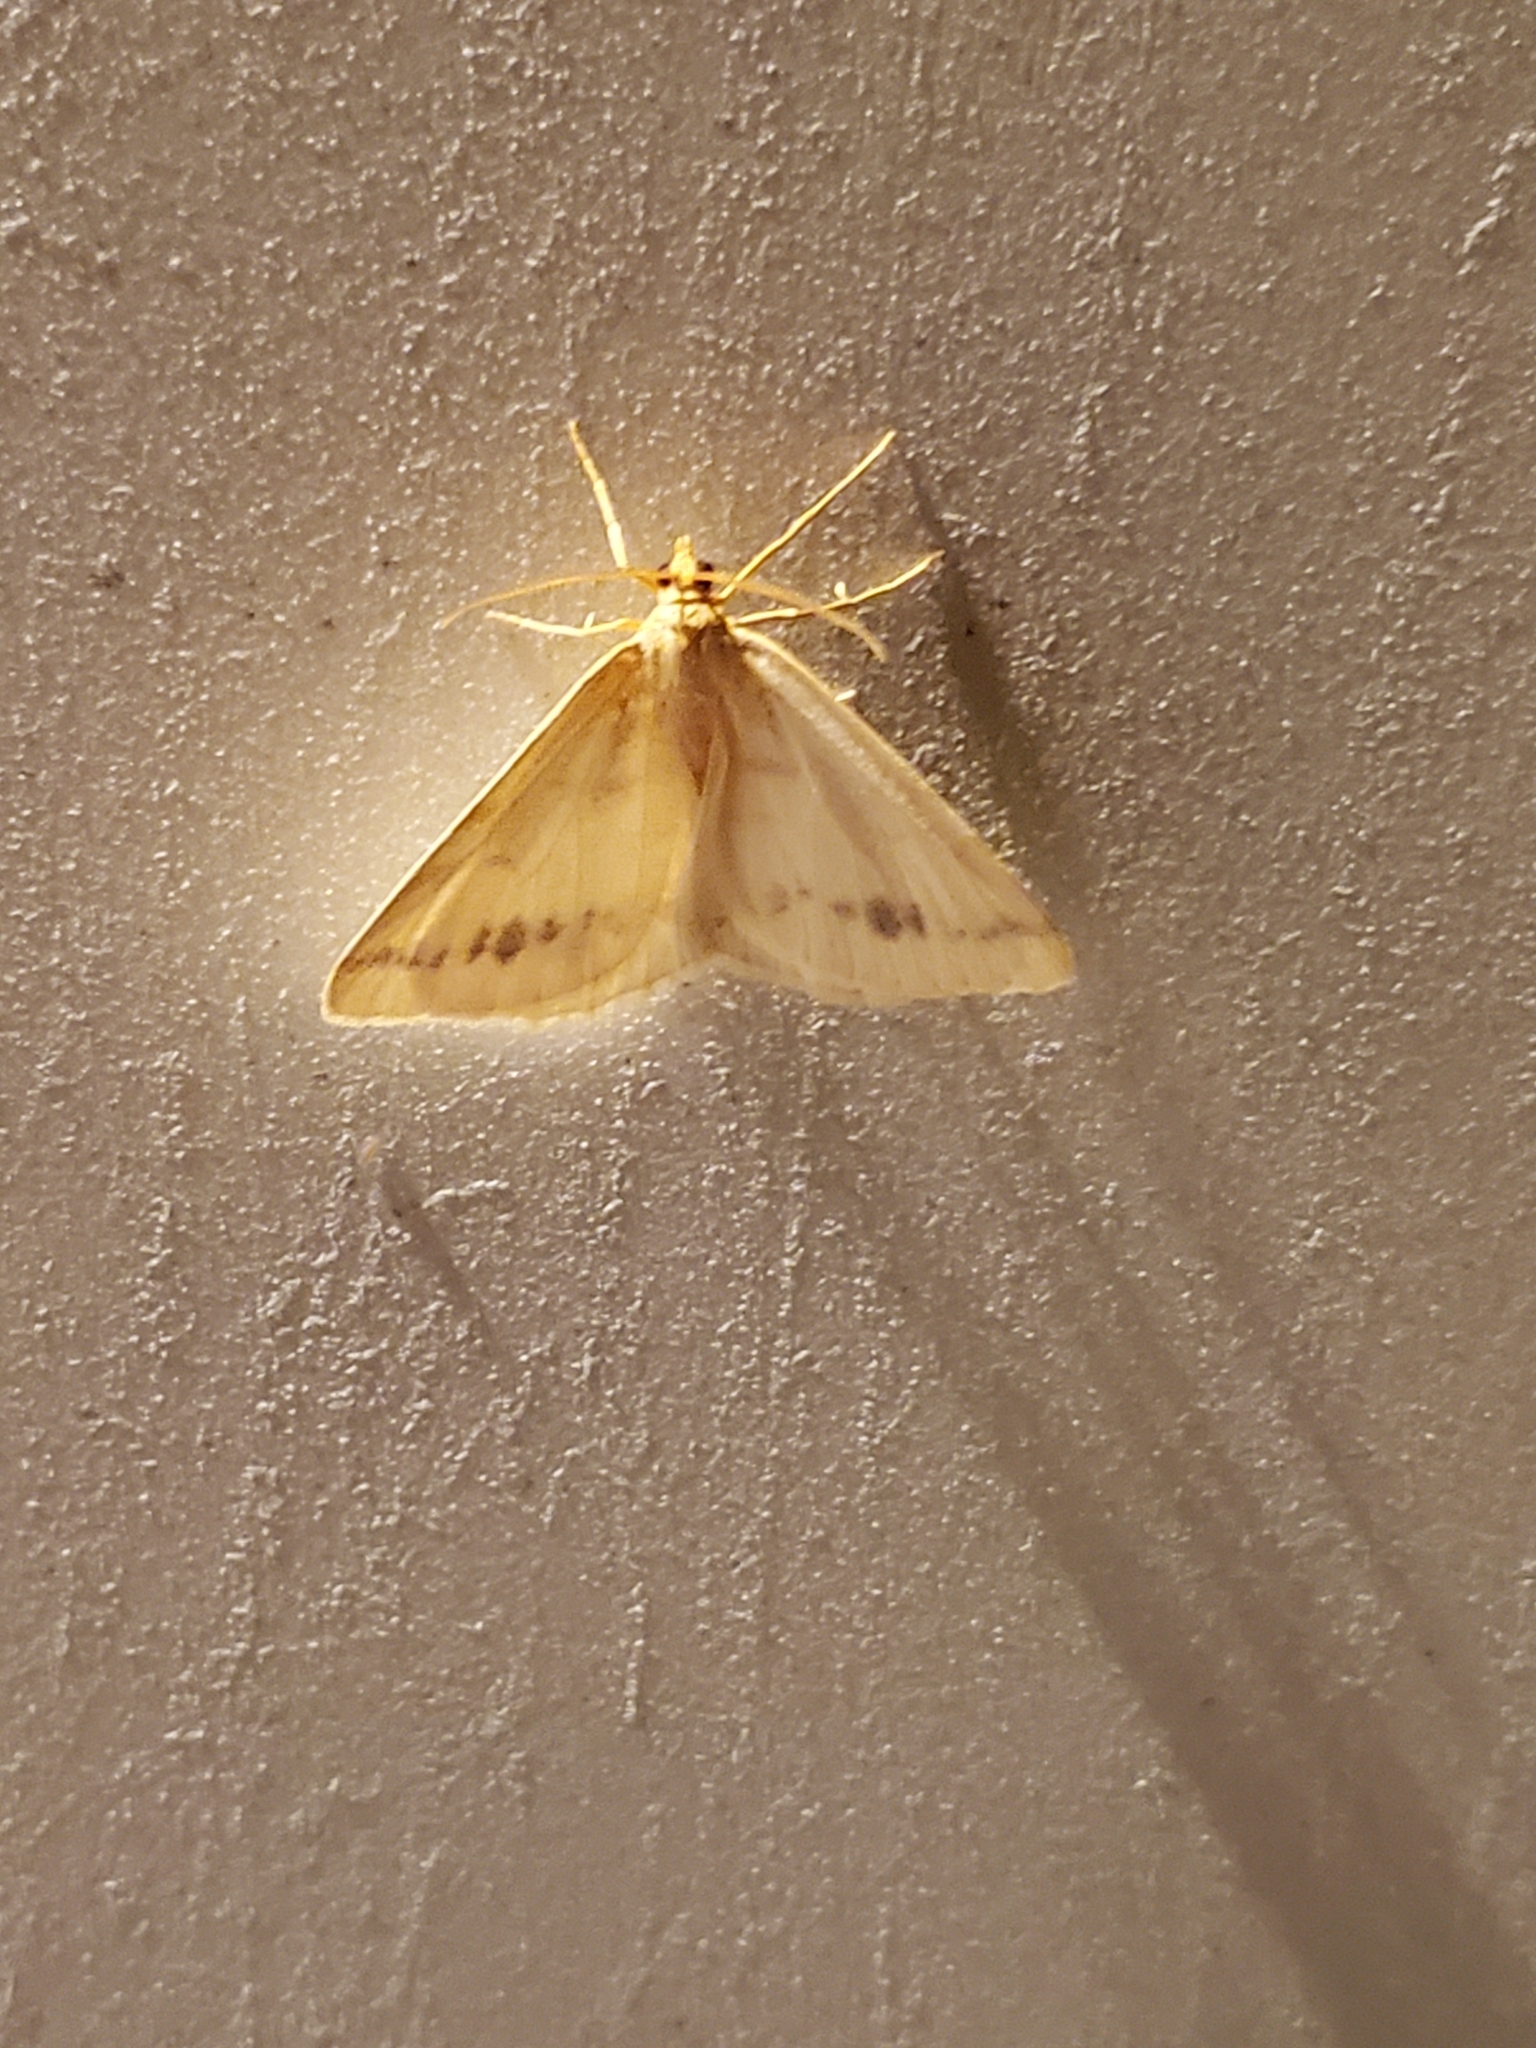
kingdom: Animalia
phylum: Arthropoda
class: Insecta
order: Lepidoptera
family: Geometridae
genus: Macaria
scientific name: Macaria ribearia
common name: Currant spanworm moth
